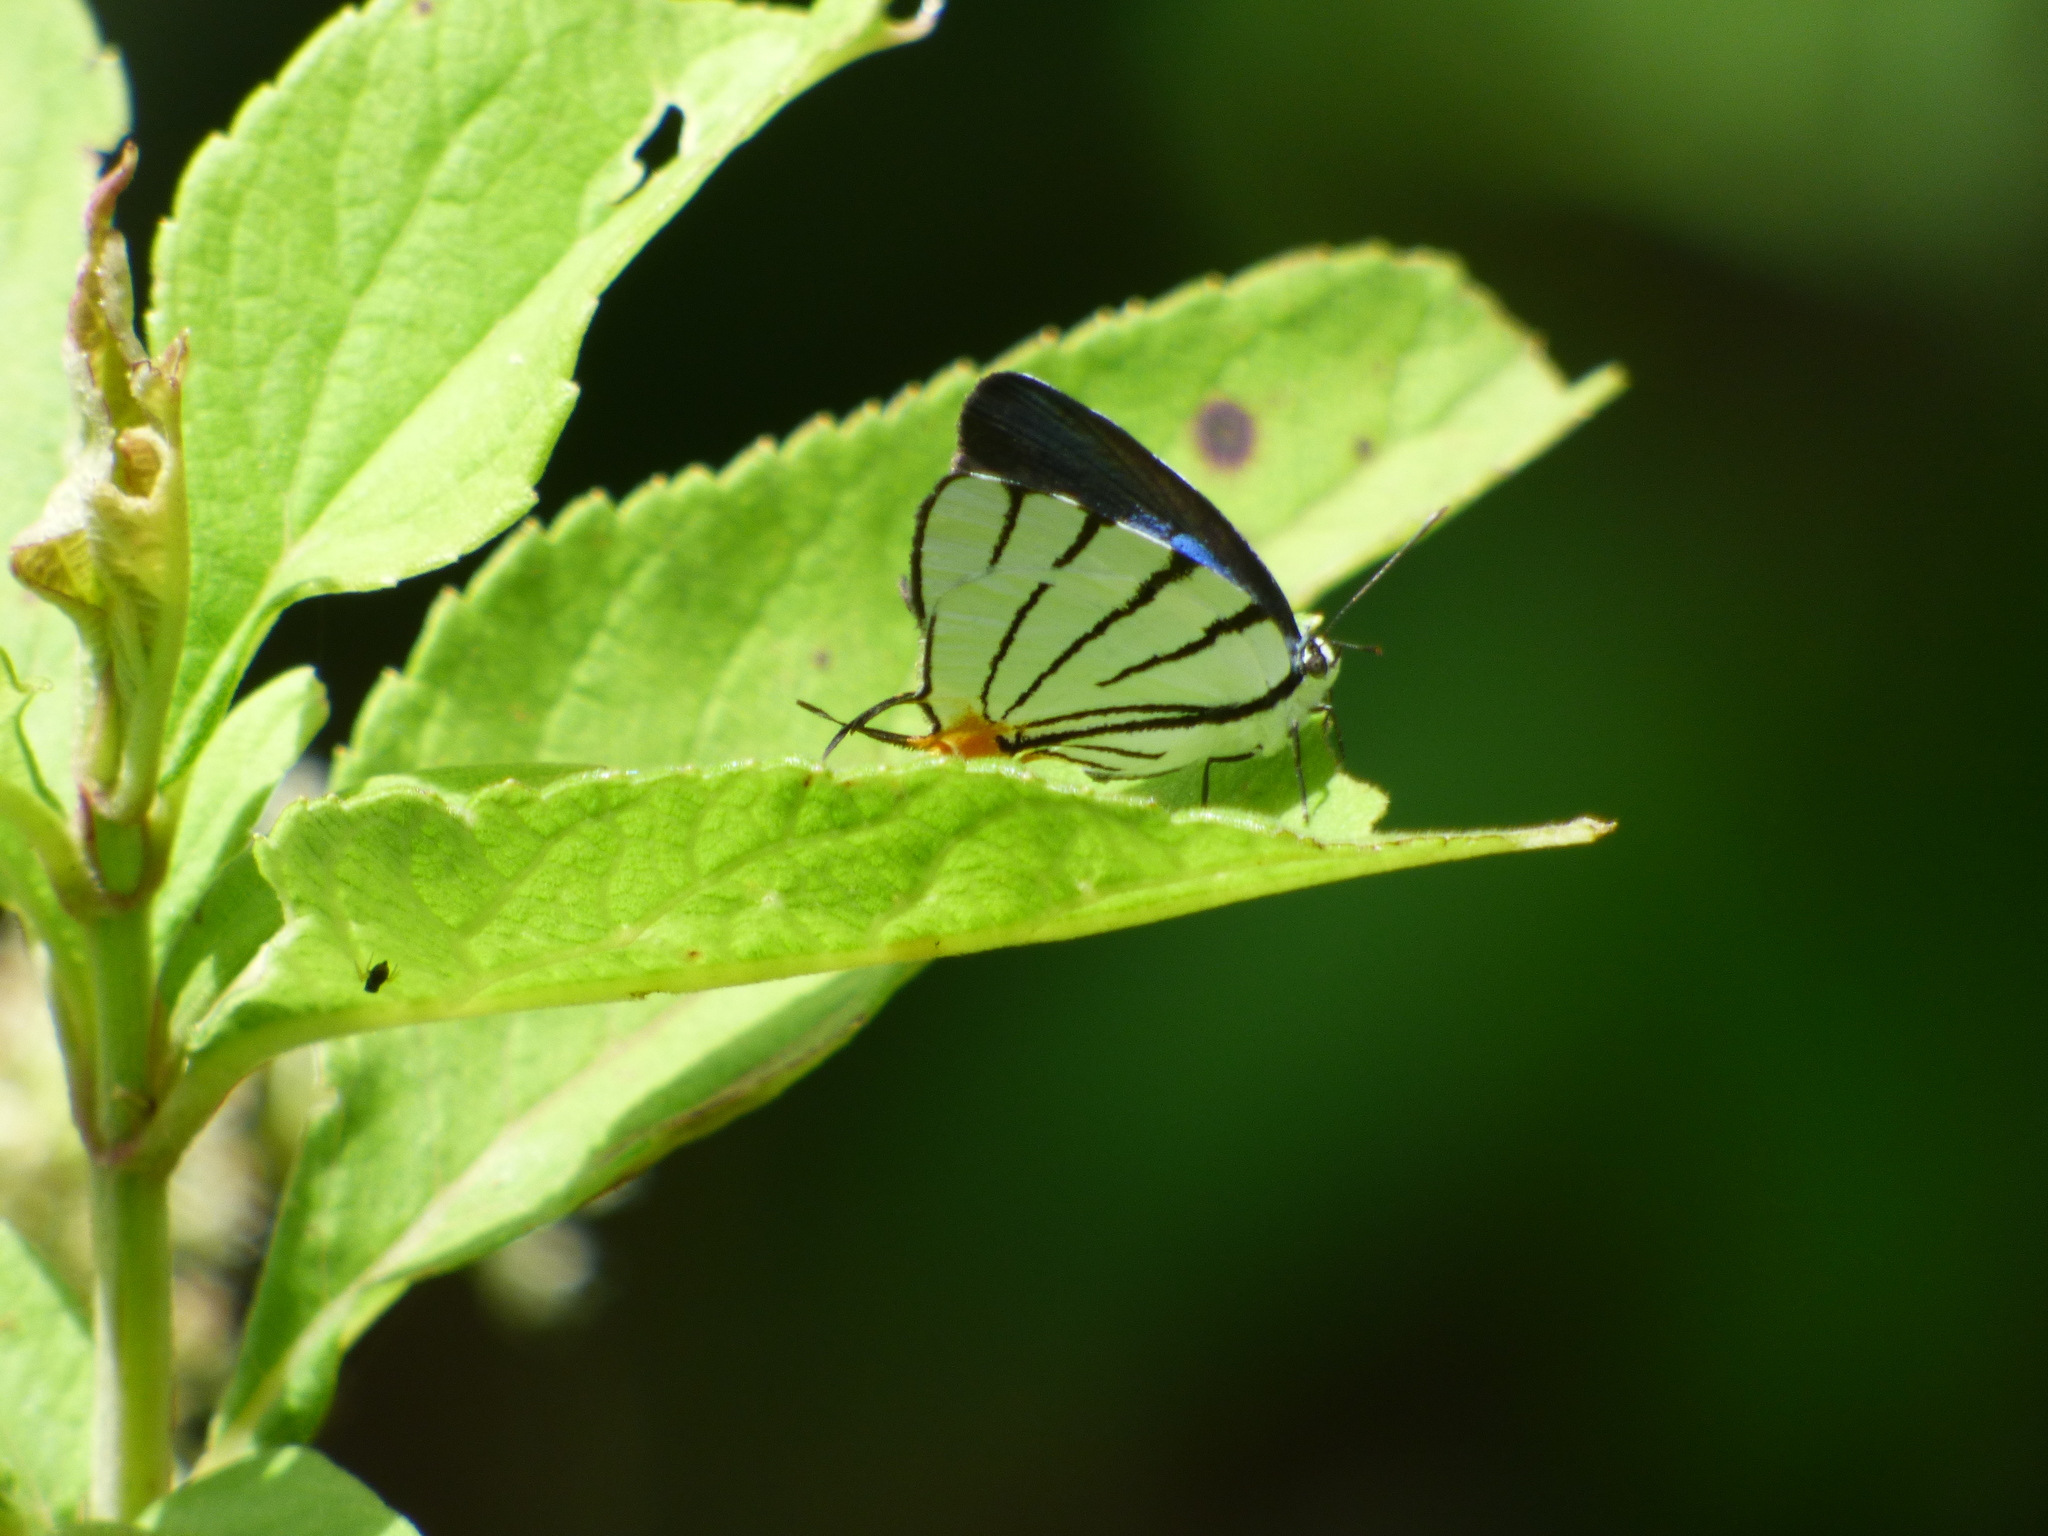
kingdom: Animalia
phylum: Arthropoda
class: Insecta
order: Lepidoptera
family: Lycaenidae
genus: Arawacus
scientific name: Arawacus leucogyna
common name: Black-tipped stripe-streak
